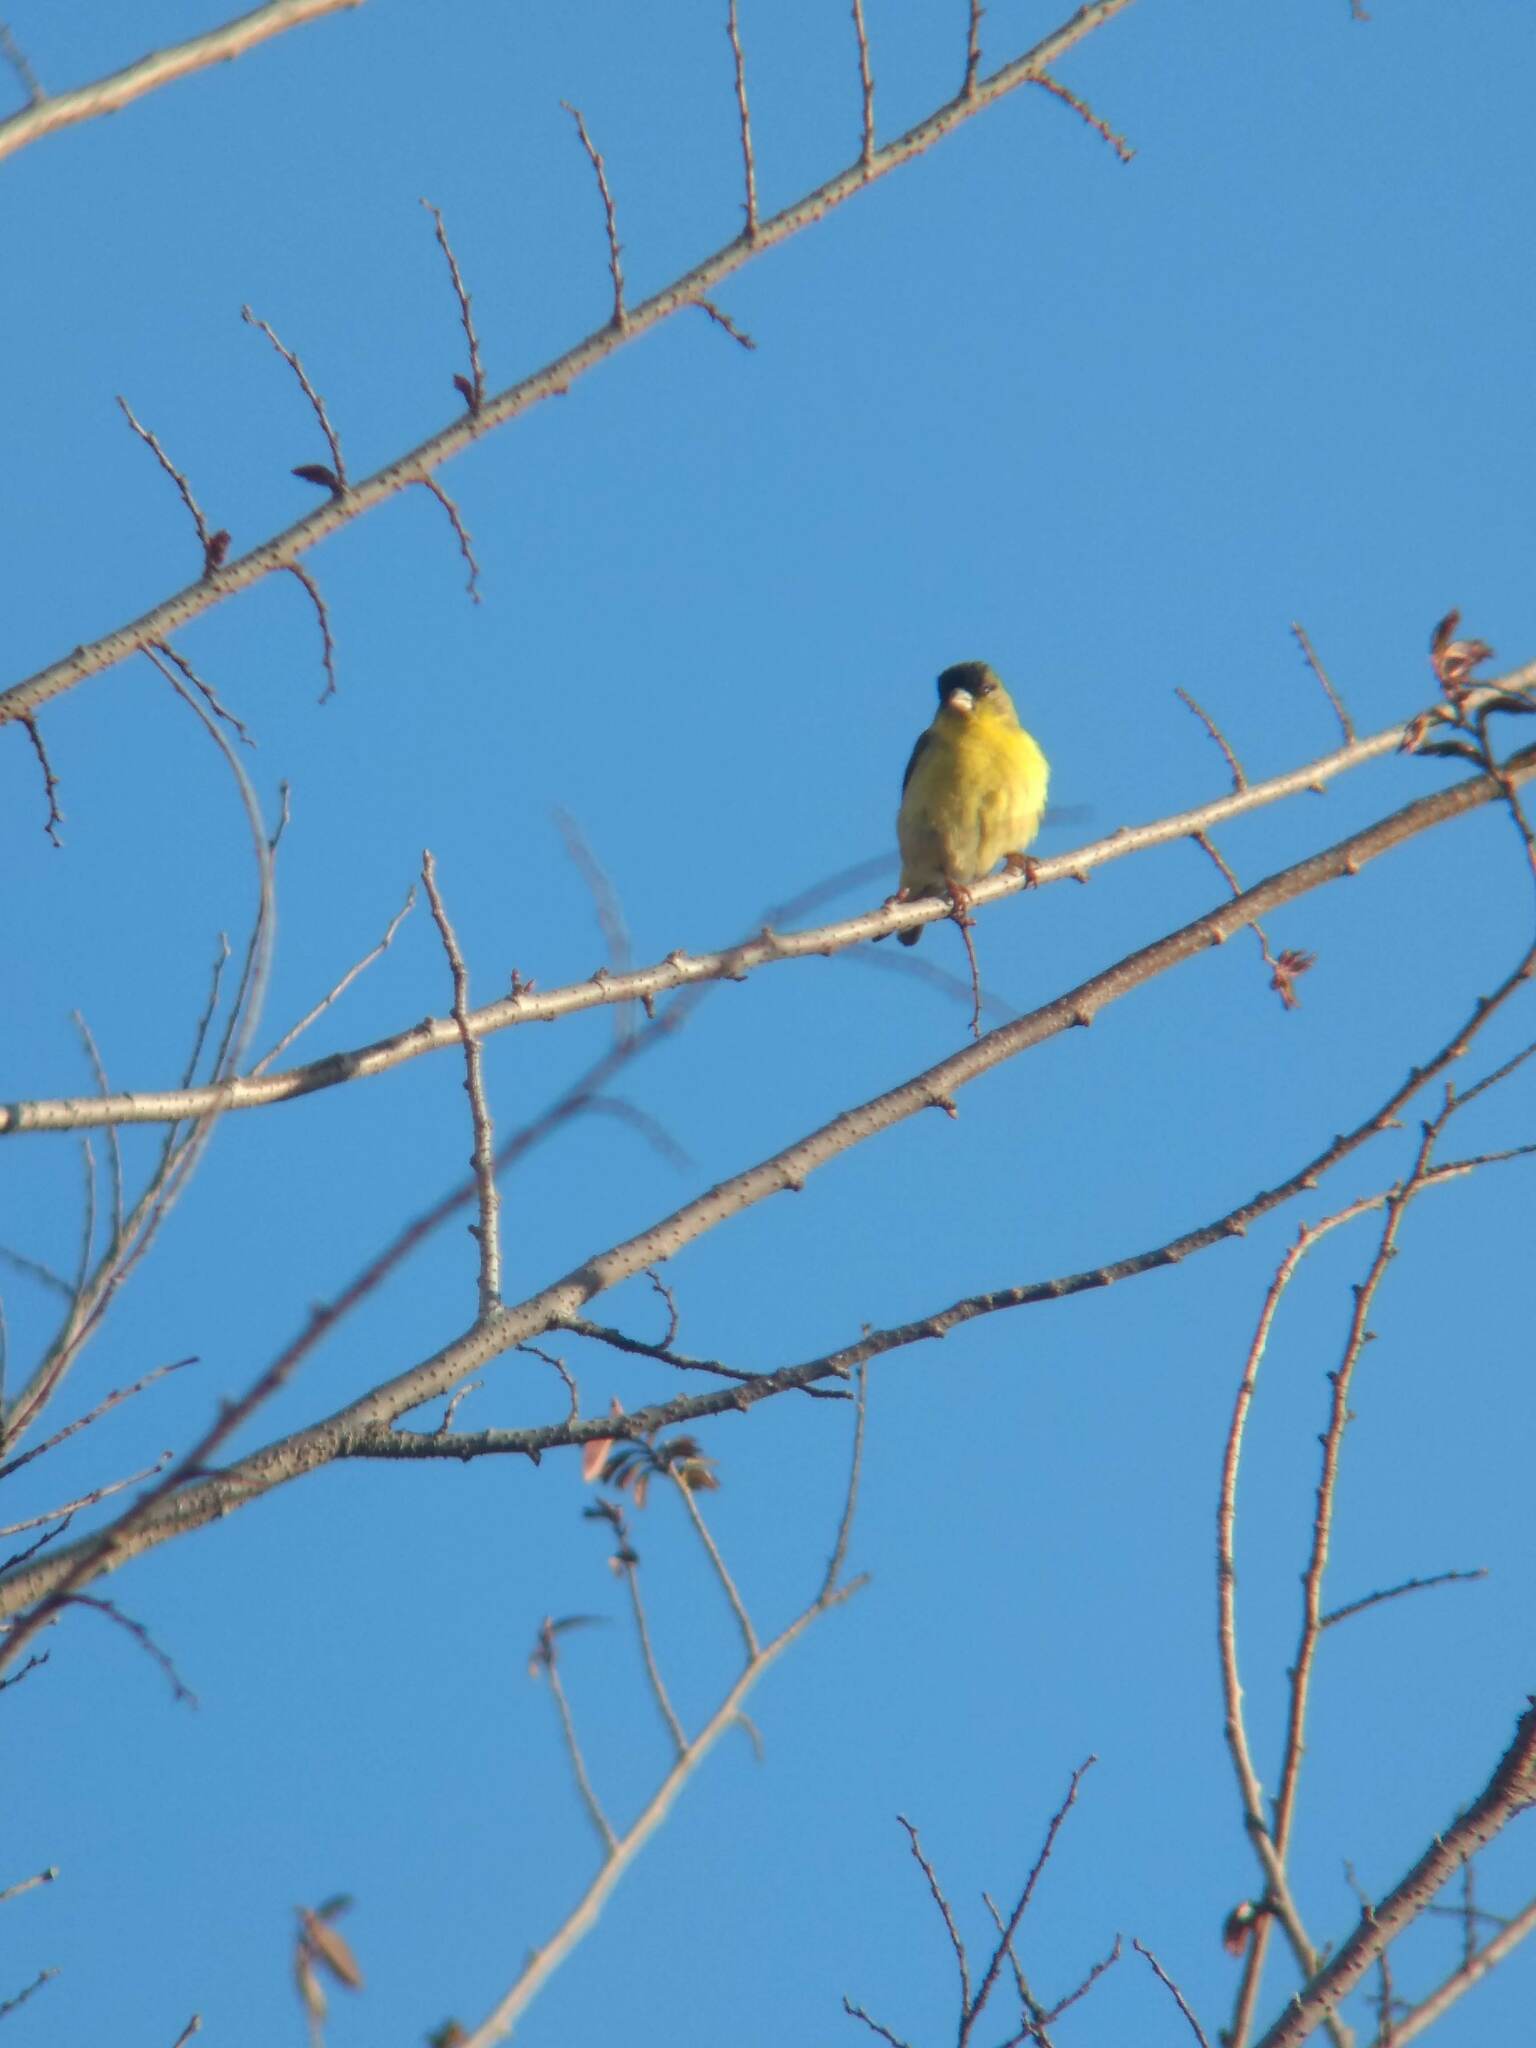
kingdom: Animalia
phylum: Chordata
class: Aves
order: Passeriformes
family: Fringillidae
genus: Spinus
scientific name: Spinus psaltria
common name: Lesser goldfinch
